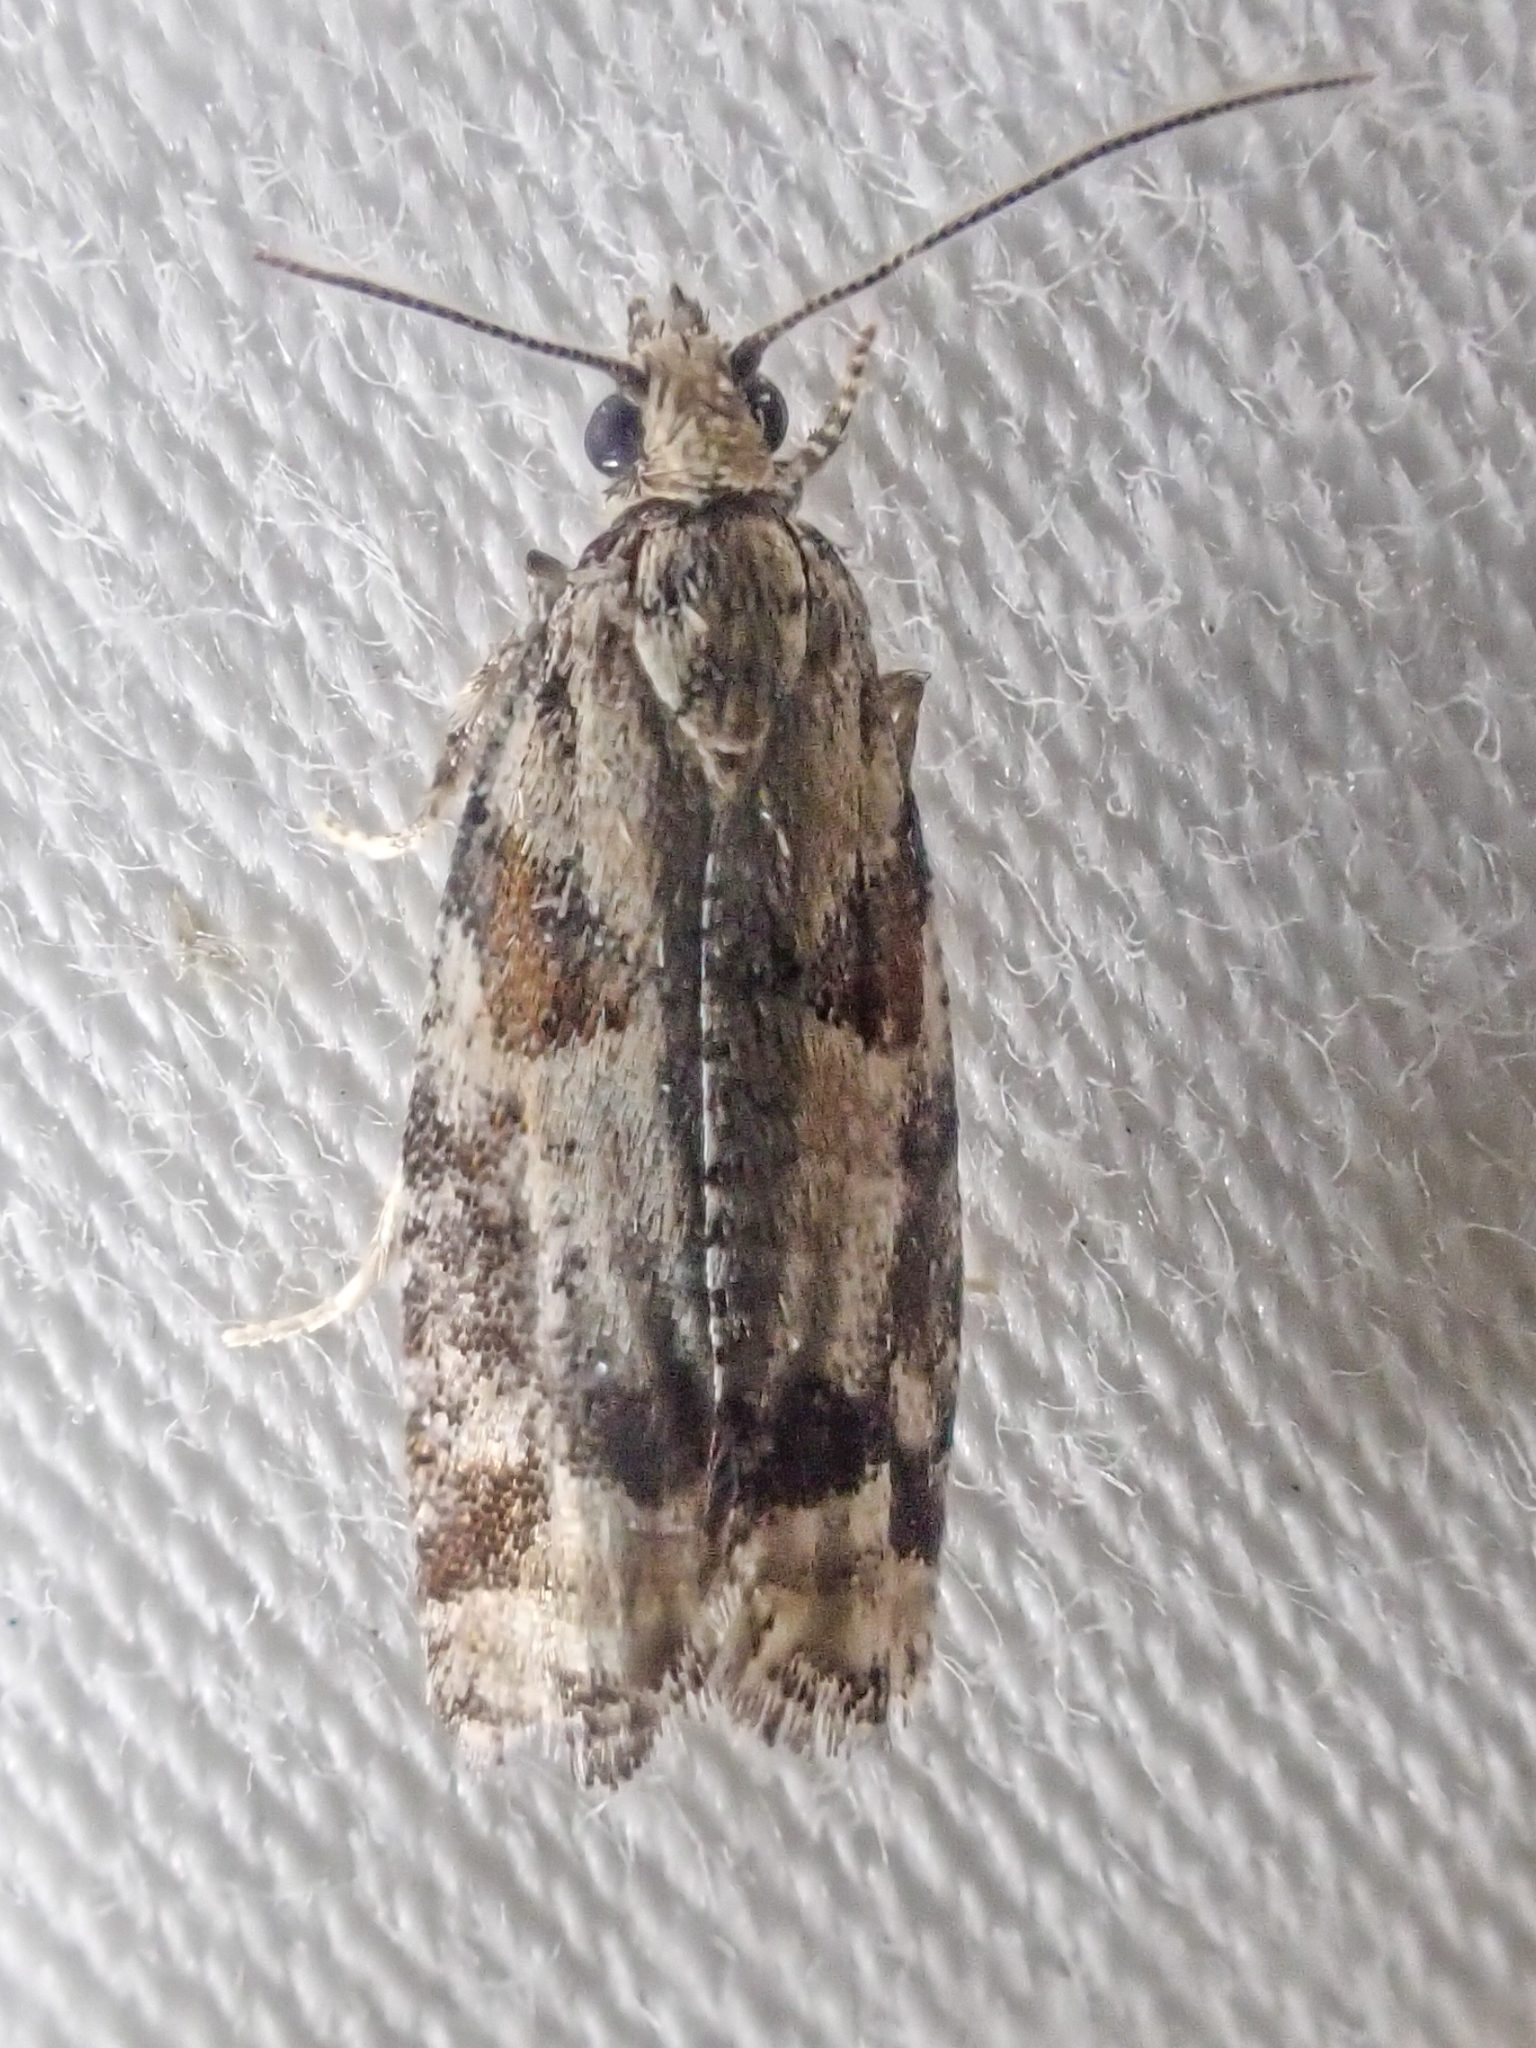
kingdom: Animalia
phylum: Arthropoda
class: Insecta
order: Lepidoptera
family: Tortricidae
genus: Epinotia
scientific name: Epinotia radicana
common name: Red-striped needleworm moth
